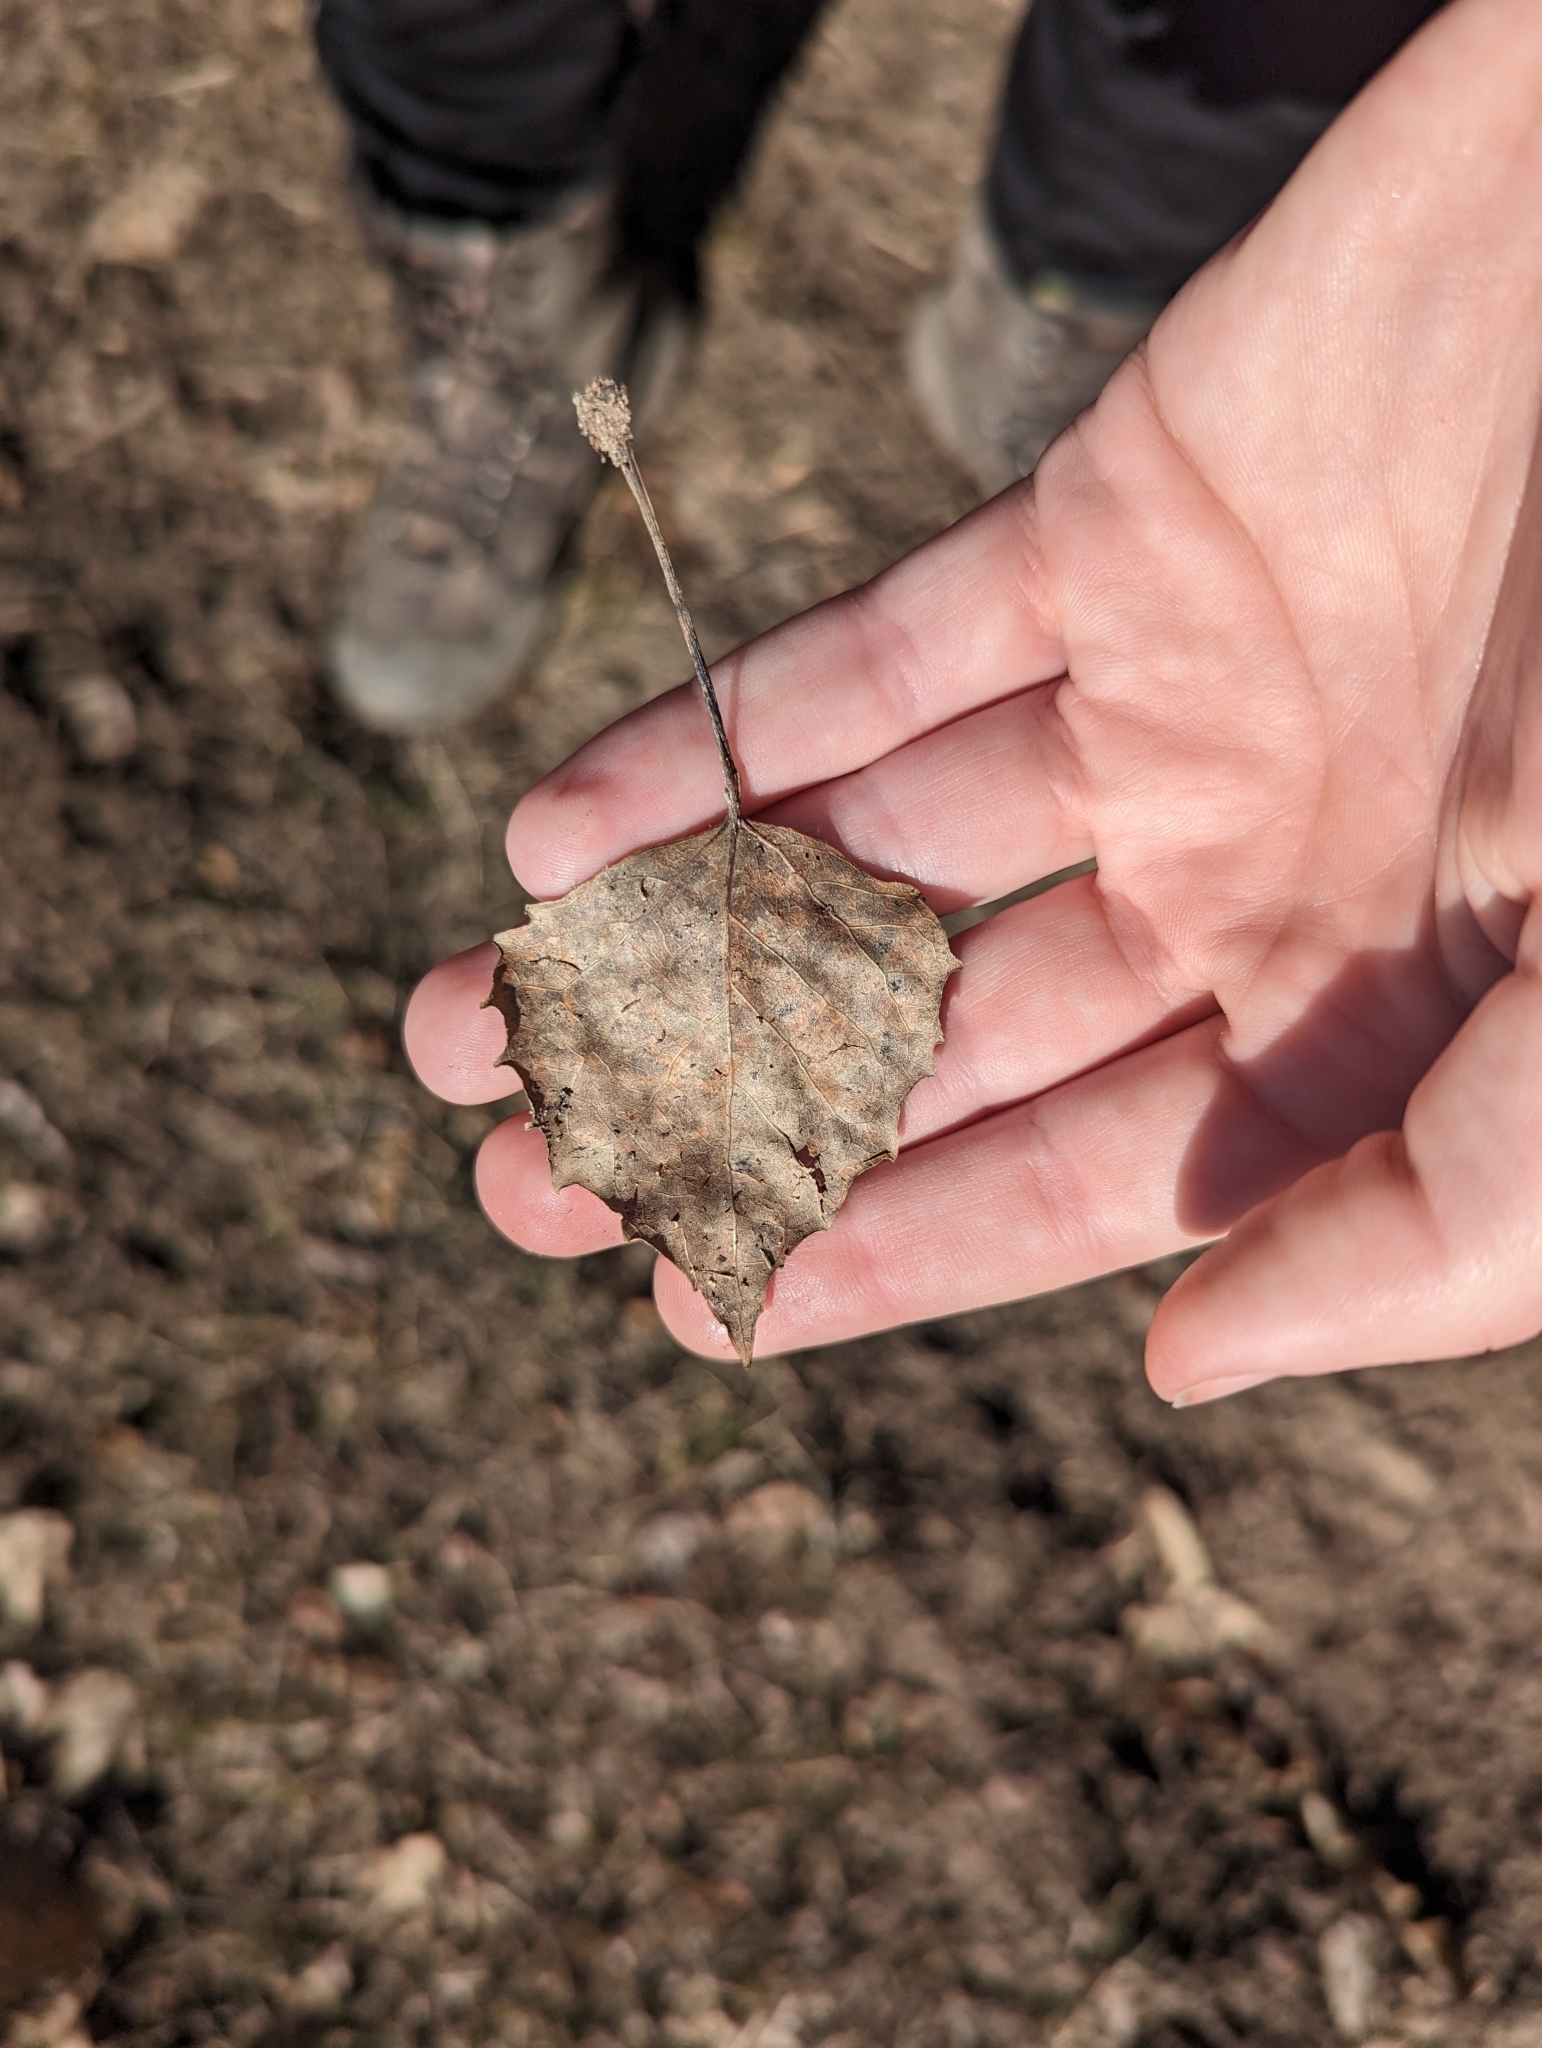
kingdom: Plantae
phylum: Tracheophyta
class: Magnoliopsida
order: Malpighiales
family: Salicaceae
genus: Populus
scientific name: Populus grandidentata
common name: Bigtooth aspen
